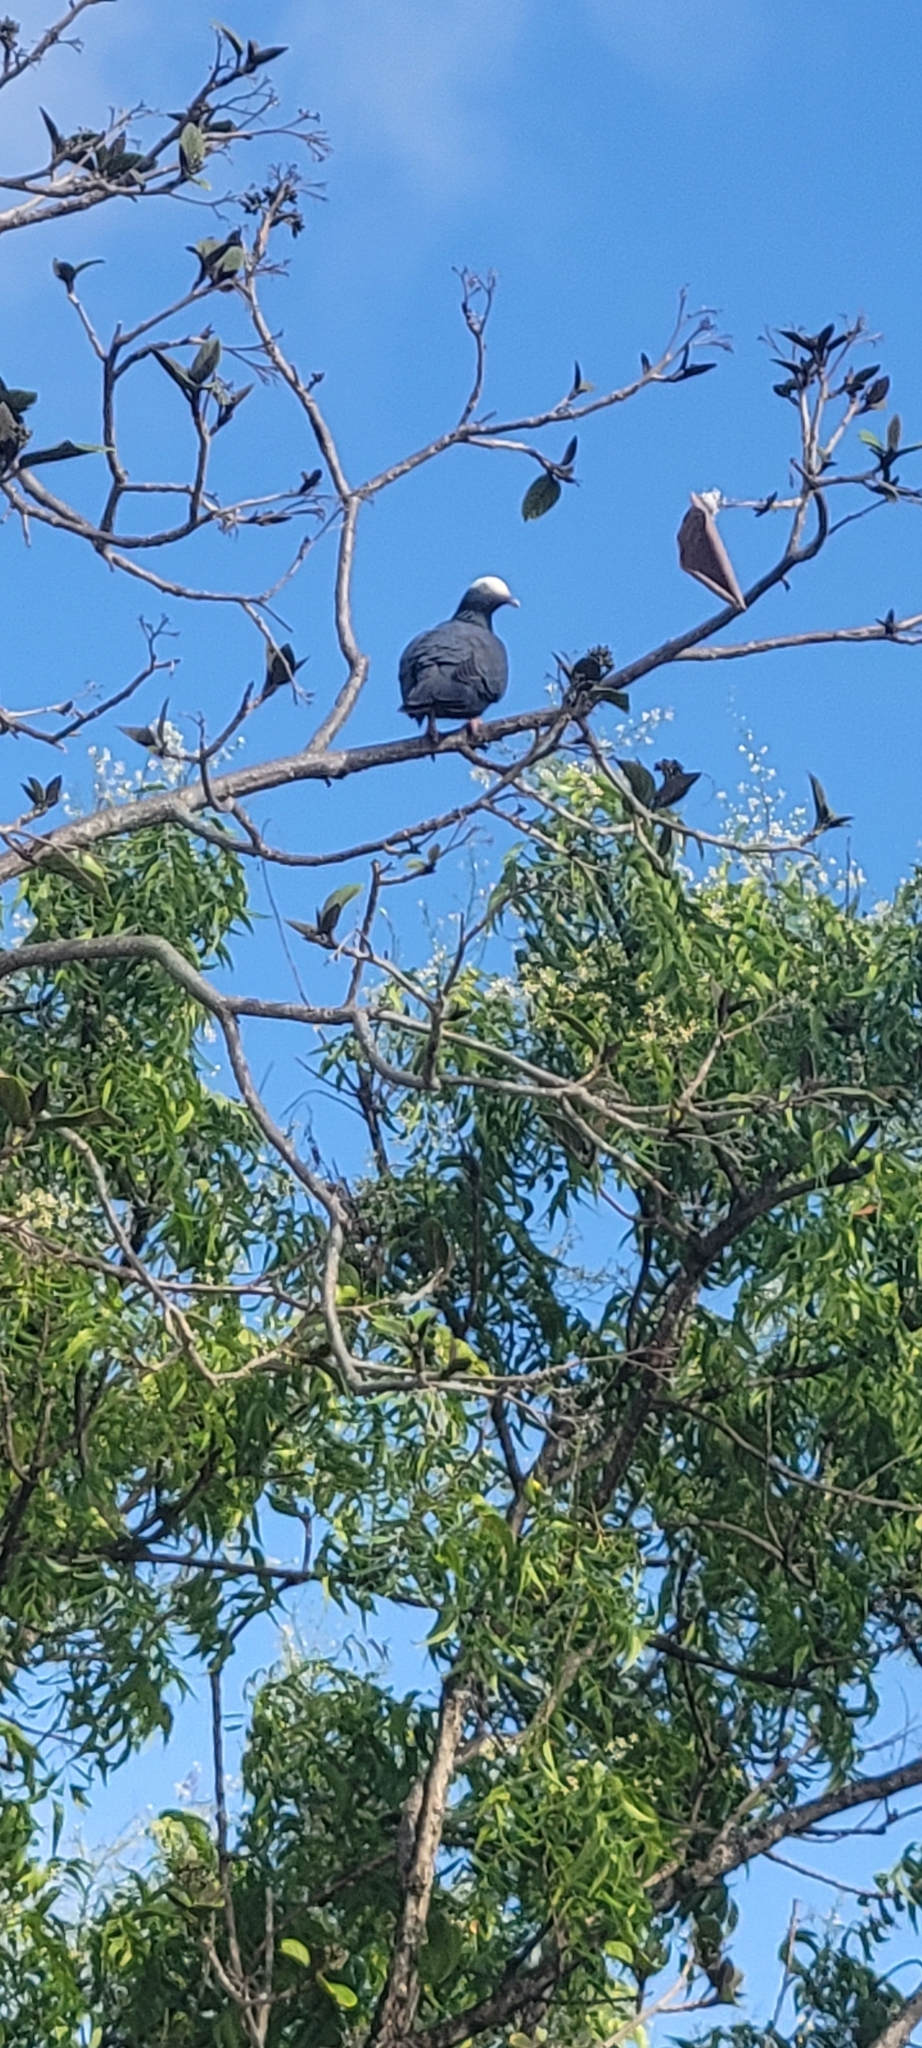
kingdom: Animalia
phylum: Chordata
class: Aves
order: Columbiformes
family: Columbidae
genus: Patagioenas
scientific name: Patagioenas leucocephala
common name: White-crowned pigeon
